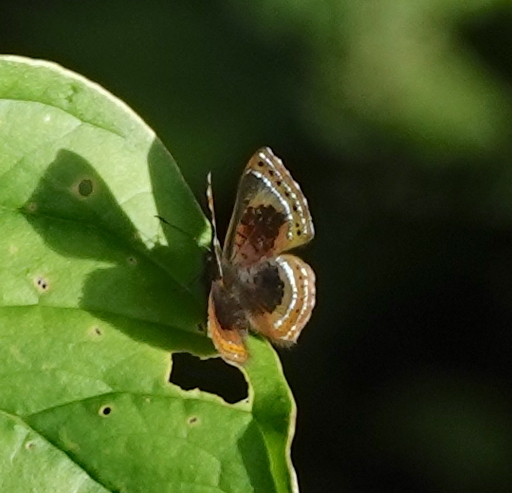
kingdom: Animalia
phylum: Arthropoda
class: Insecta
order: Lepidoptera
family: Riodinidae
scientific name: Riodinidae
